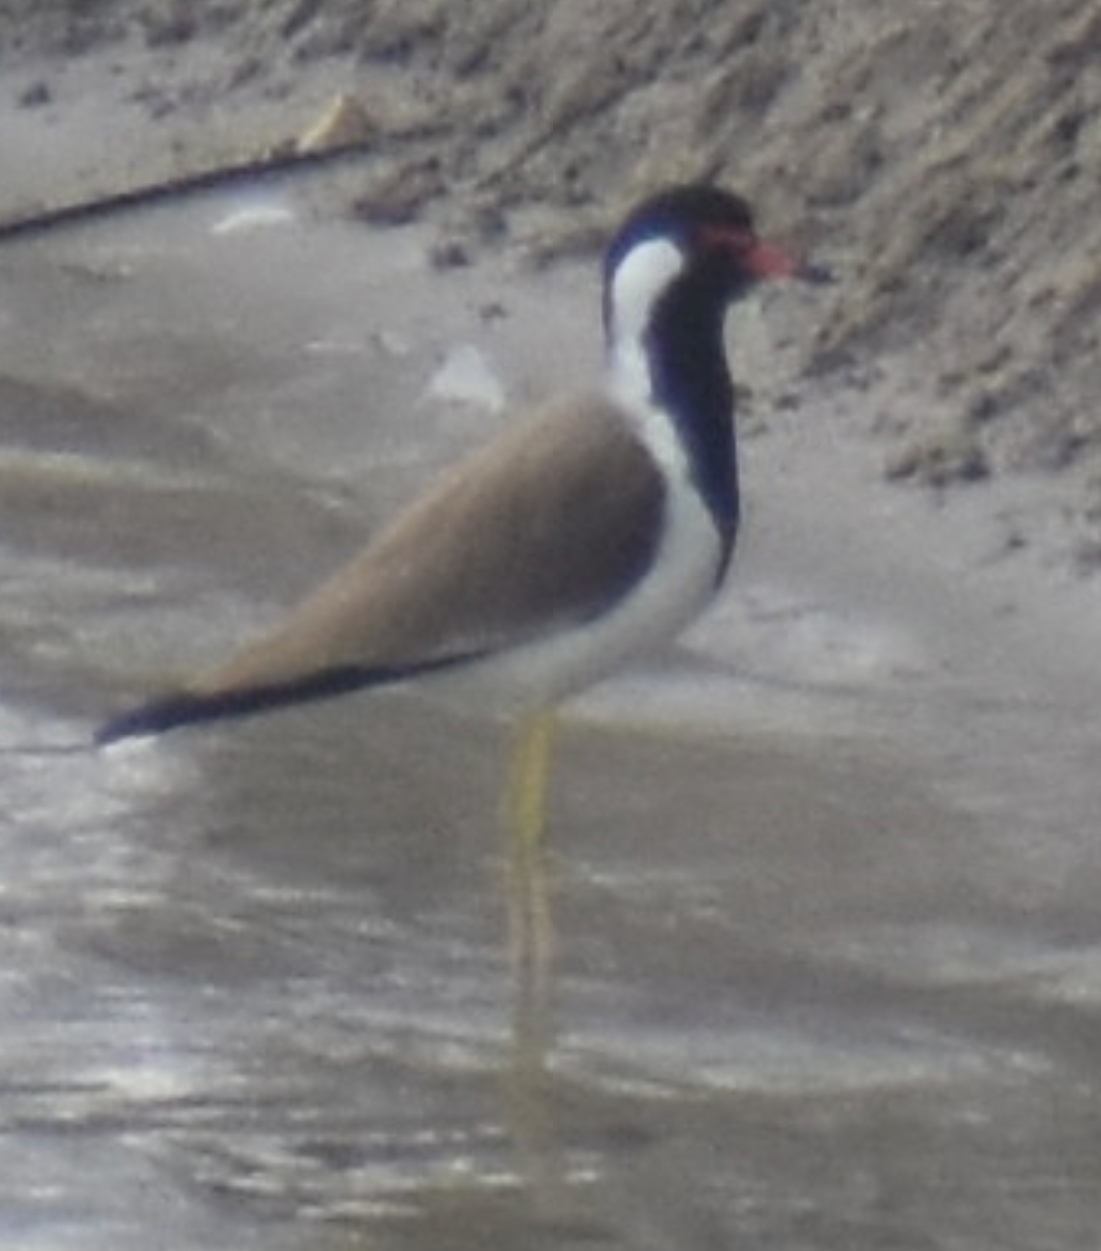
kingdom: Animalia
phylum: Chordata
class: Aves
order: Charadriiformes
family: Charadriidae
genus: Vanellus
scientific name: Vanellus indicus
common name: Red-wattled lapwing
